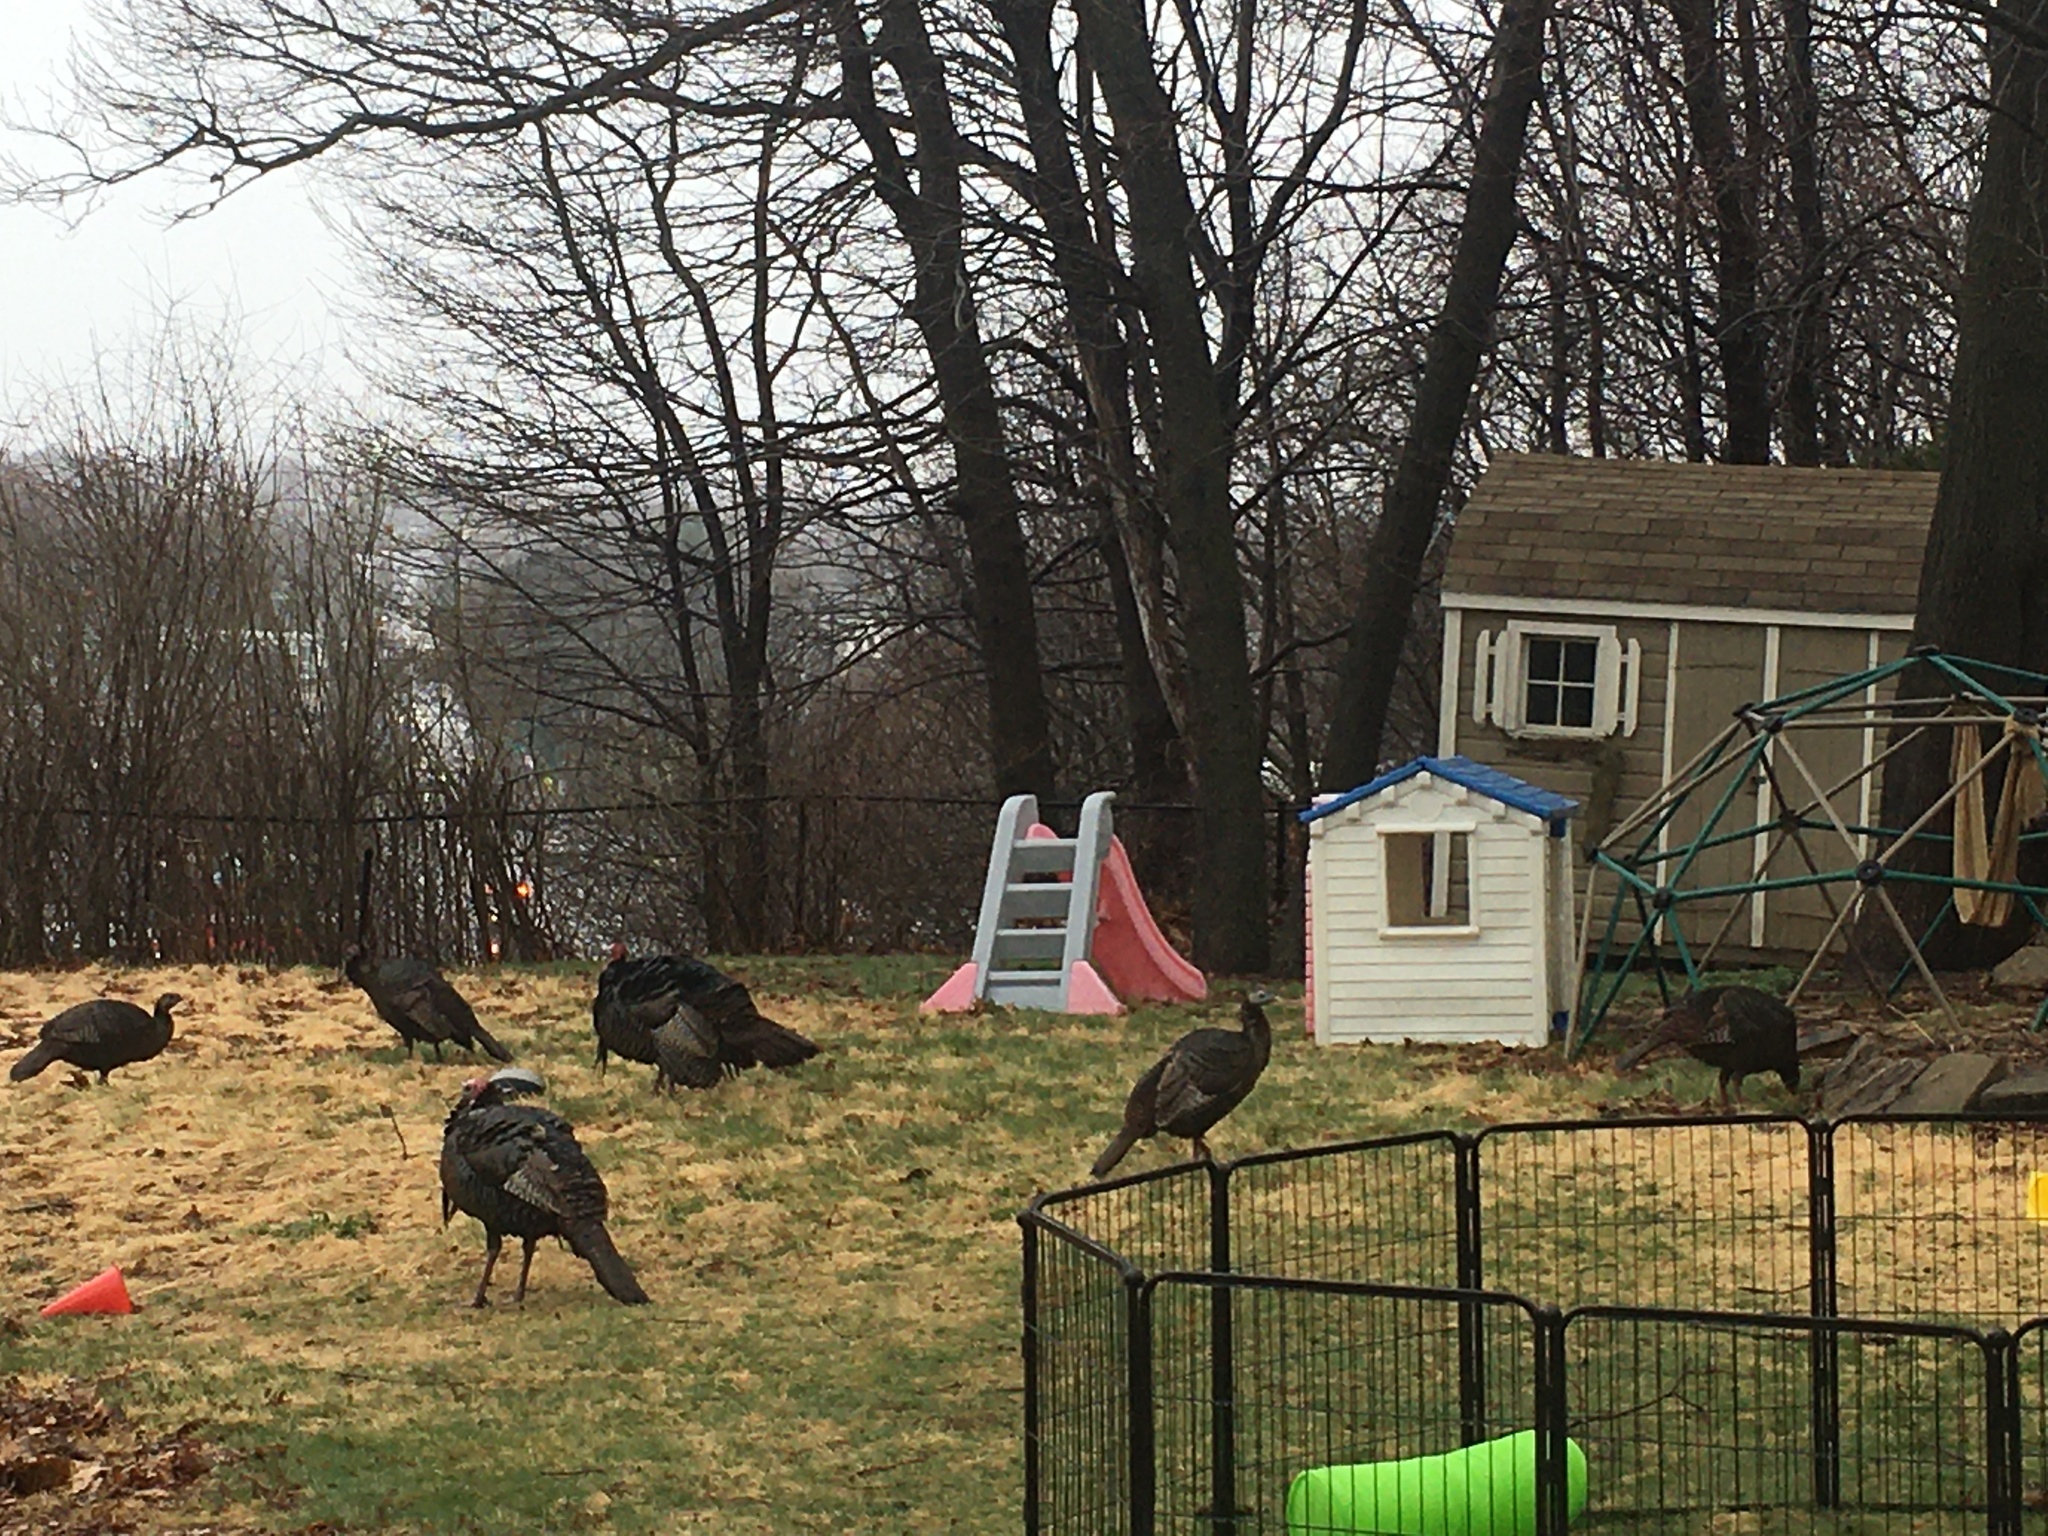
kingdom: Animalia
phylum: Chordata
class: Aves
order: Galliformes
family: Phasianidae
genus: Meleagris
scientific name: Meleagris gallopavo
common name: Wild turkey
